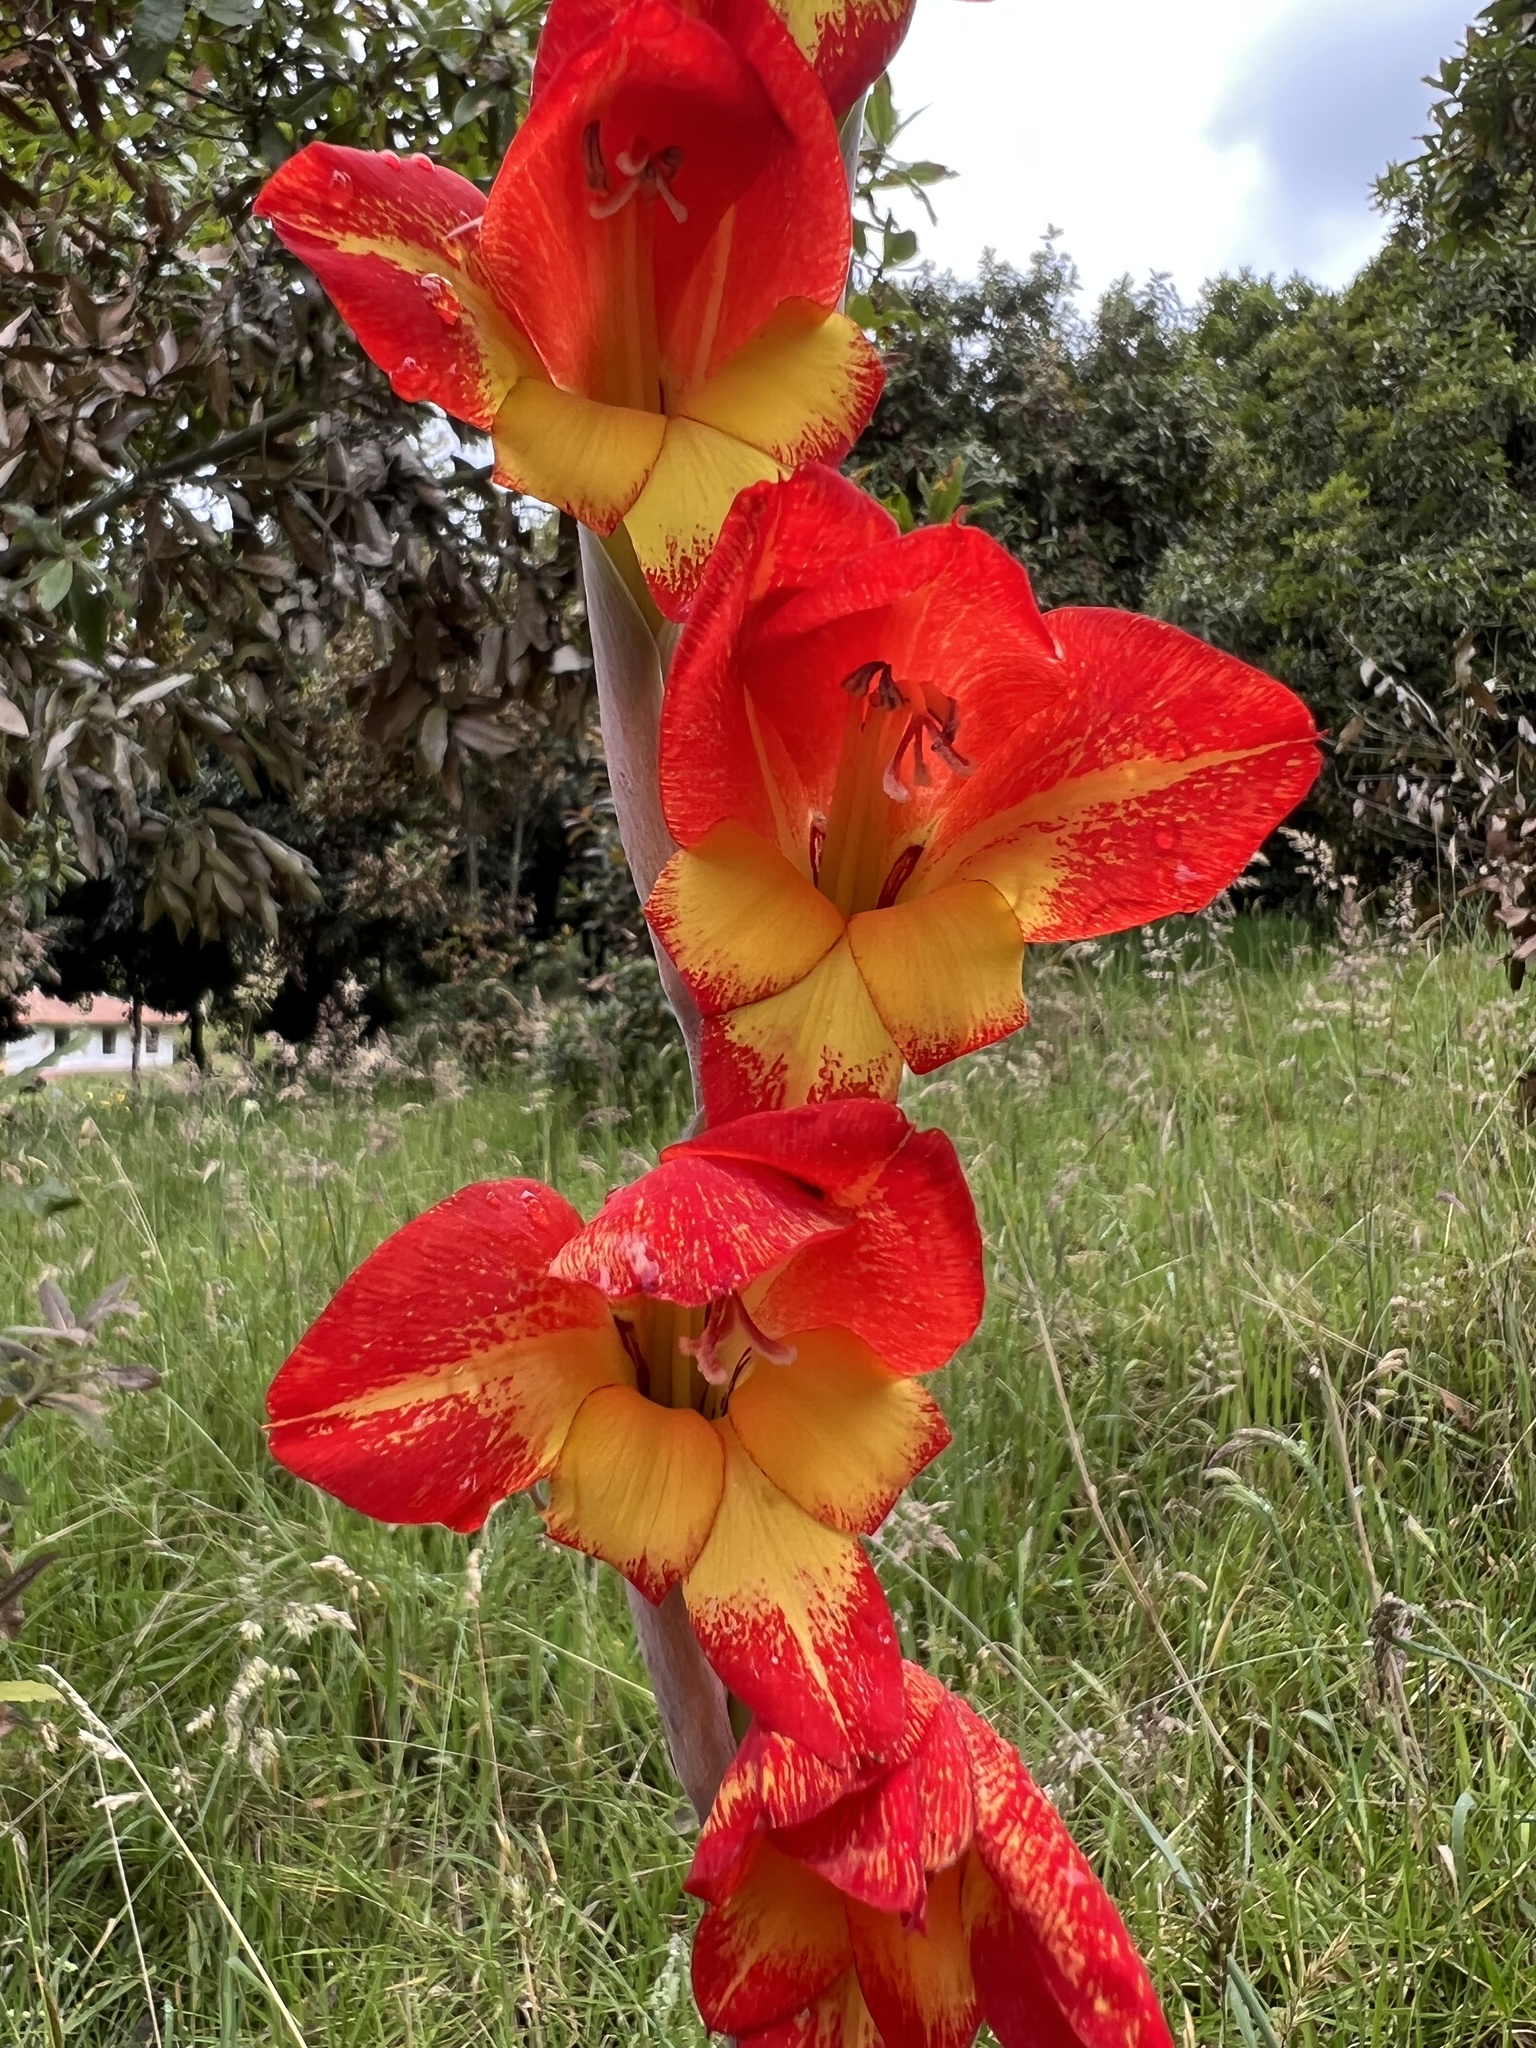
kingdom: Plantae
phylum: Tracheophyta
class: Liliopsida
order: Asparagales
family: Iridaceae
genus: Gladiolus
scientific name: Gladiolus dalenii
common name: Cornflag
